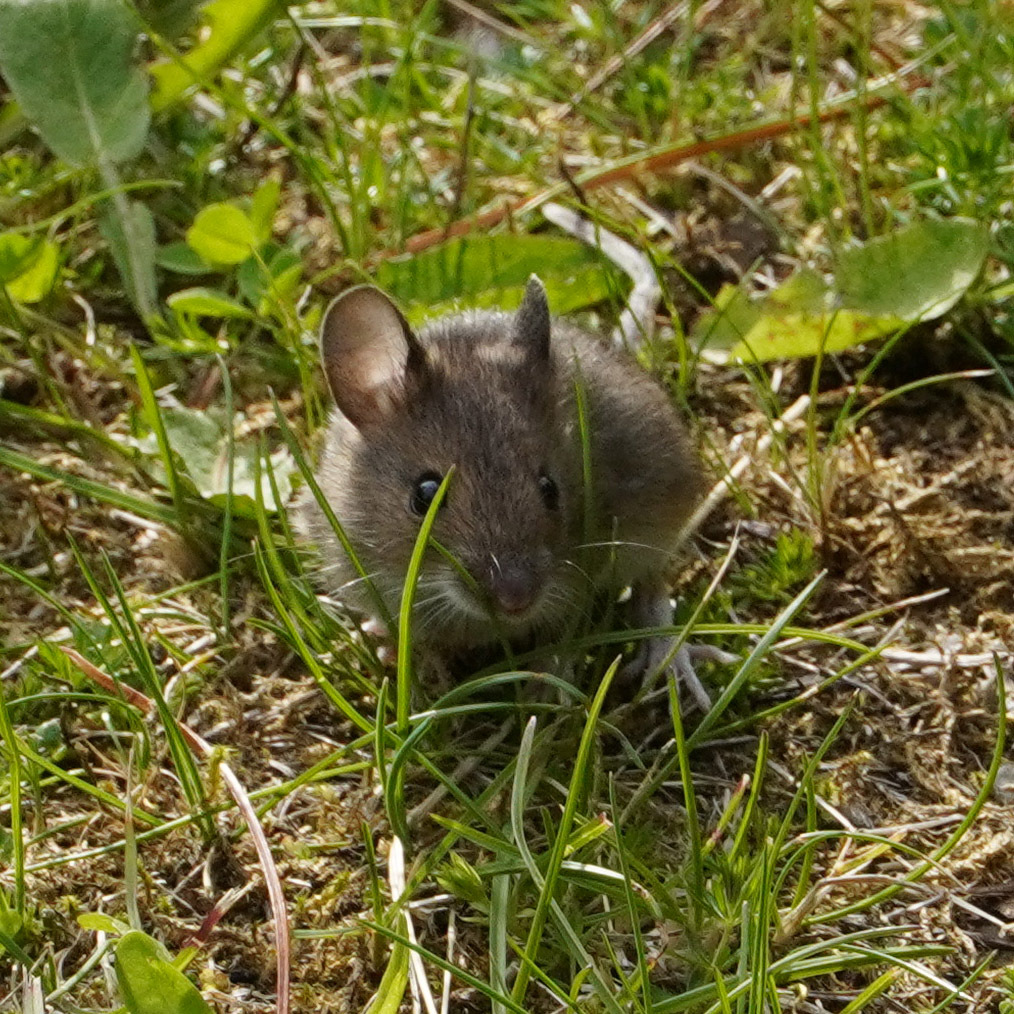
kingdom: Animalia
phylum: Chordata
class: Mammalia
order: Rodentia
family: Muridae
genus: Apodemus
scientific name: Apodemus sylvaticus
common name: Wood mouse
